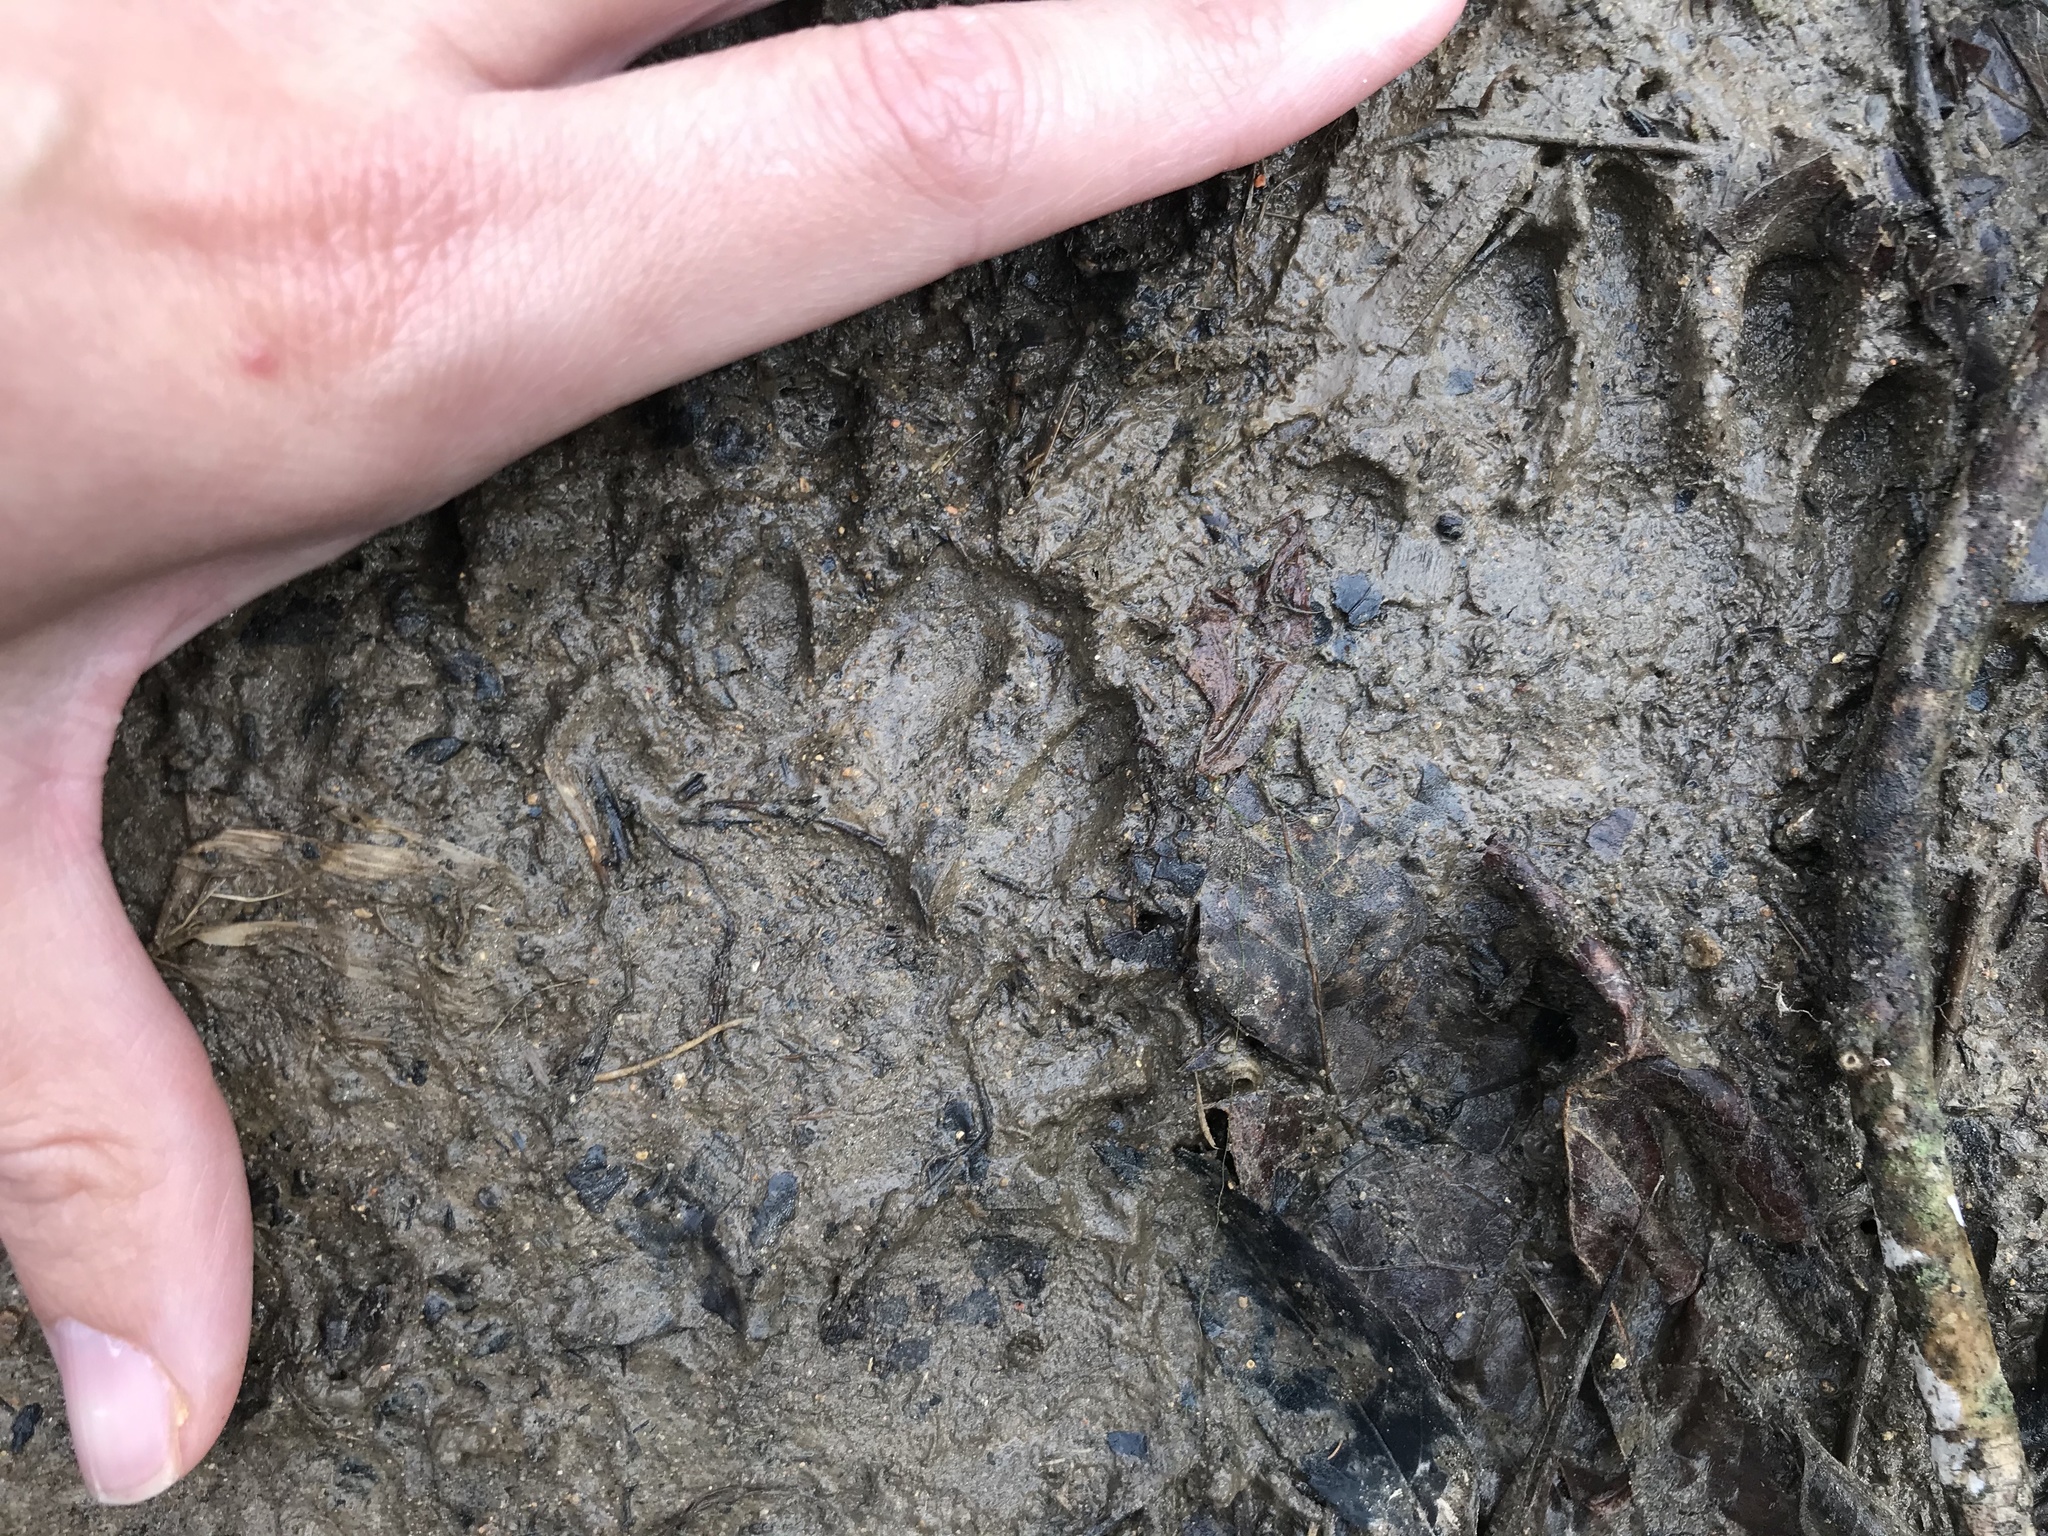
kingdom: Animalia
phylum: Chordata
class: Mammalia
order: Carnivora
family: Mephitidae
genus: Mephitis
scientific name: Mephitis mephitis
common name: Striped skunk
